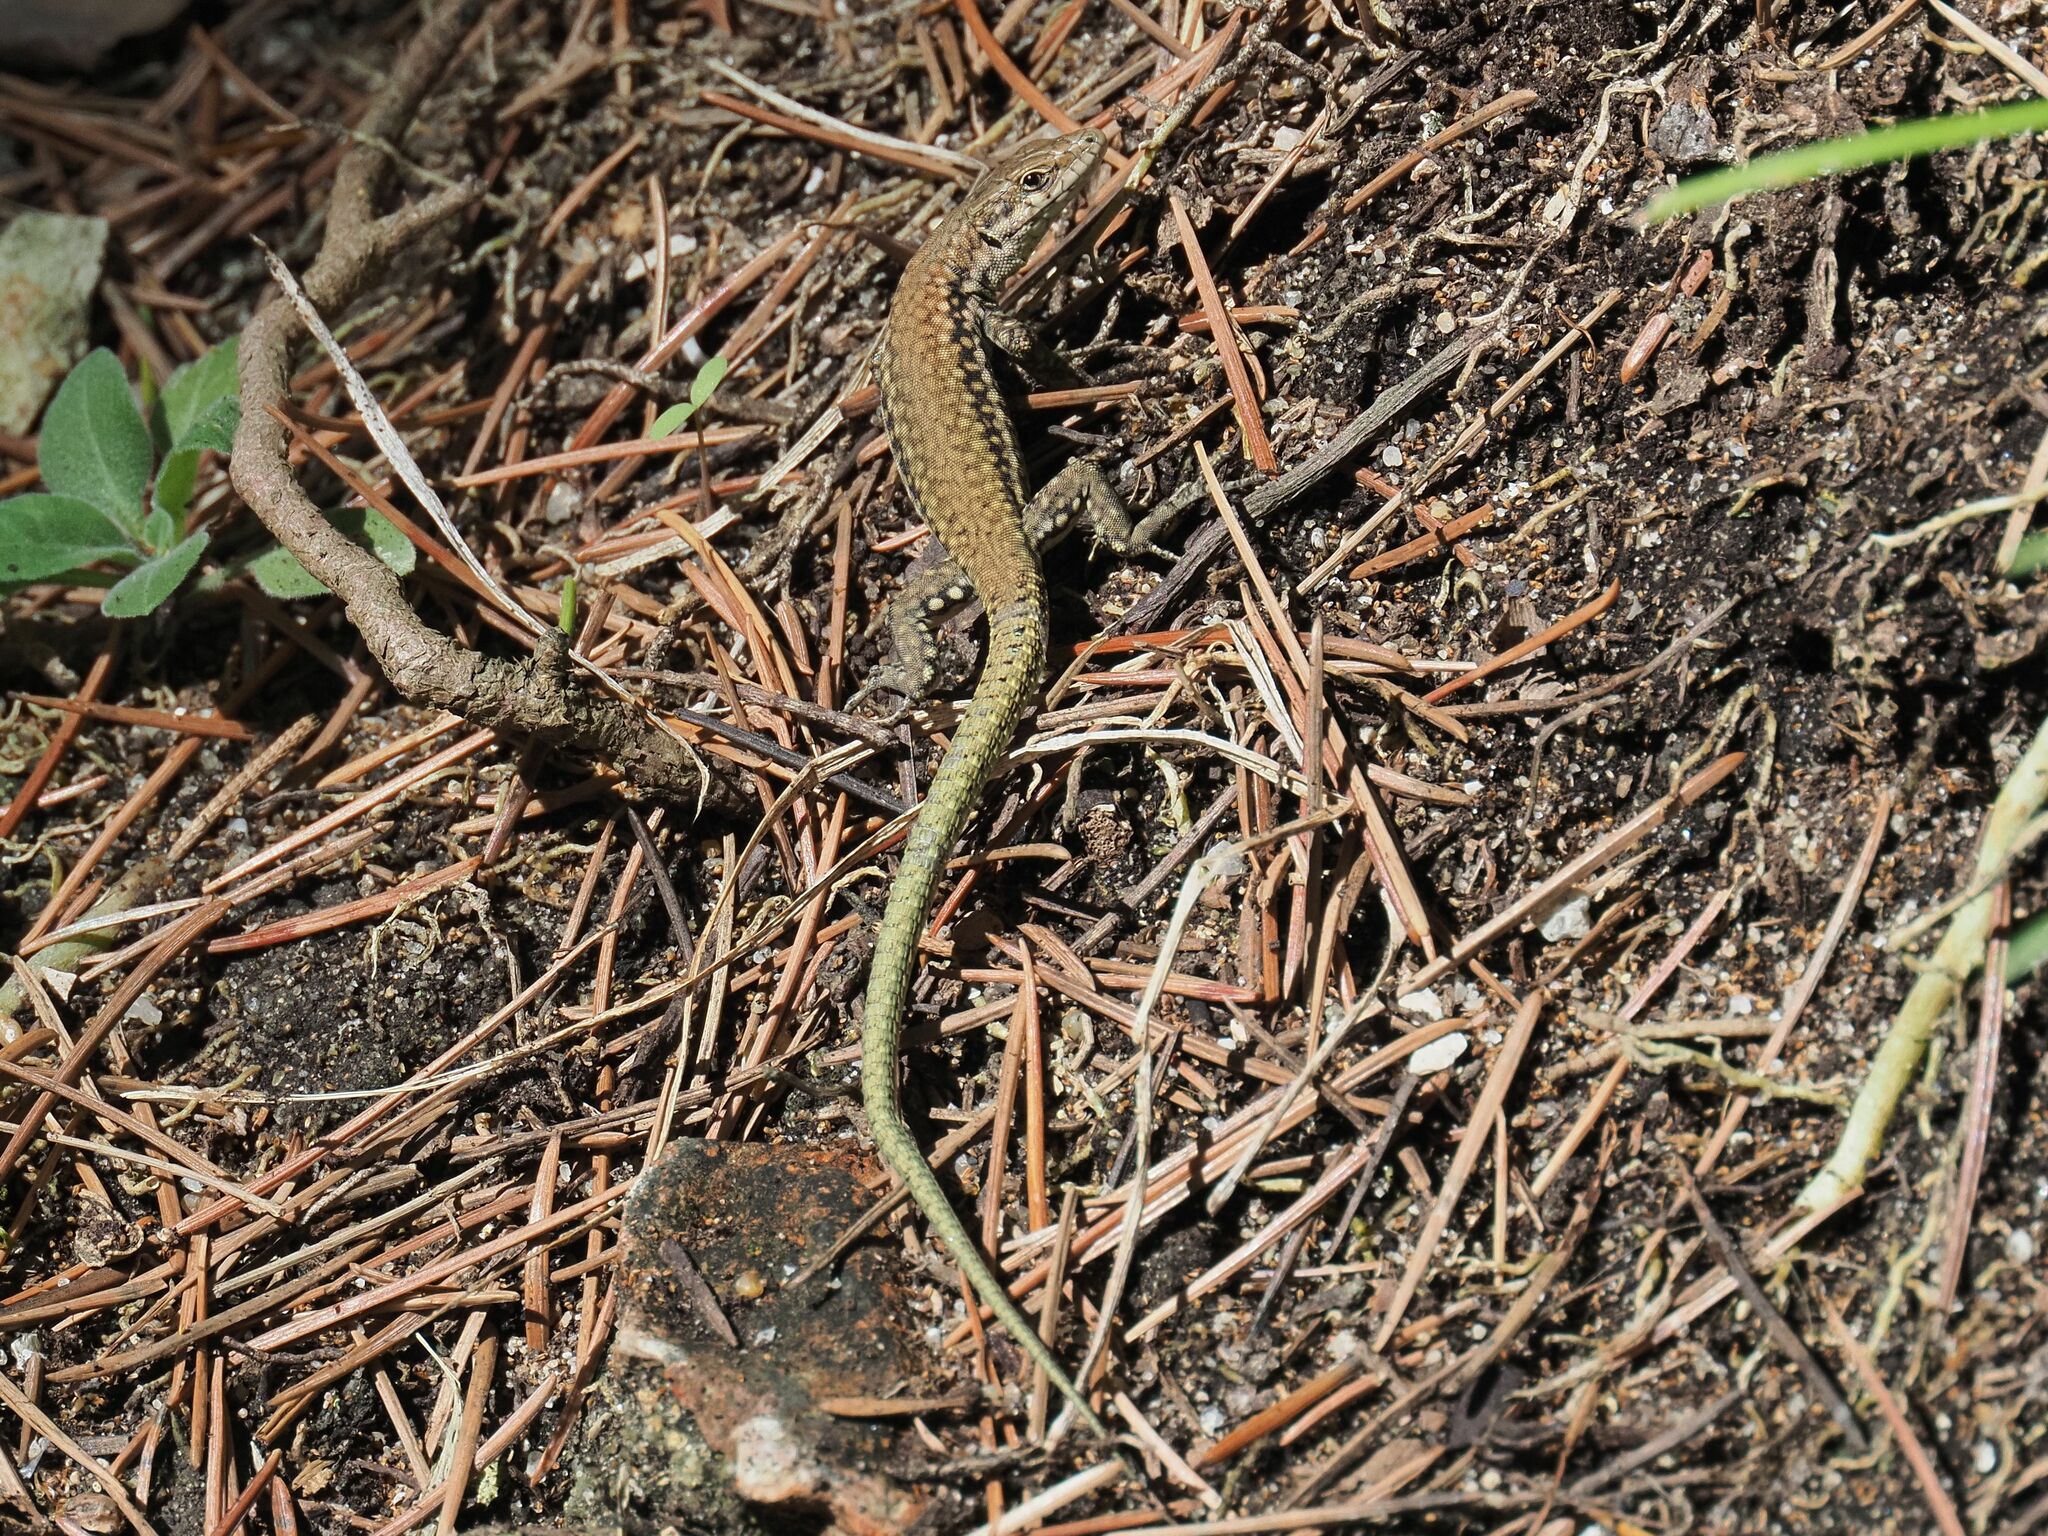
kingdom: Animalia
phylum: Chordata
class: Squamata
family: Lacertidae
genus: Podarcis
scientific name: Podarcis virescens
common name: Geniez’s wall lizard
